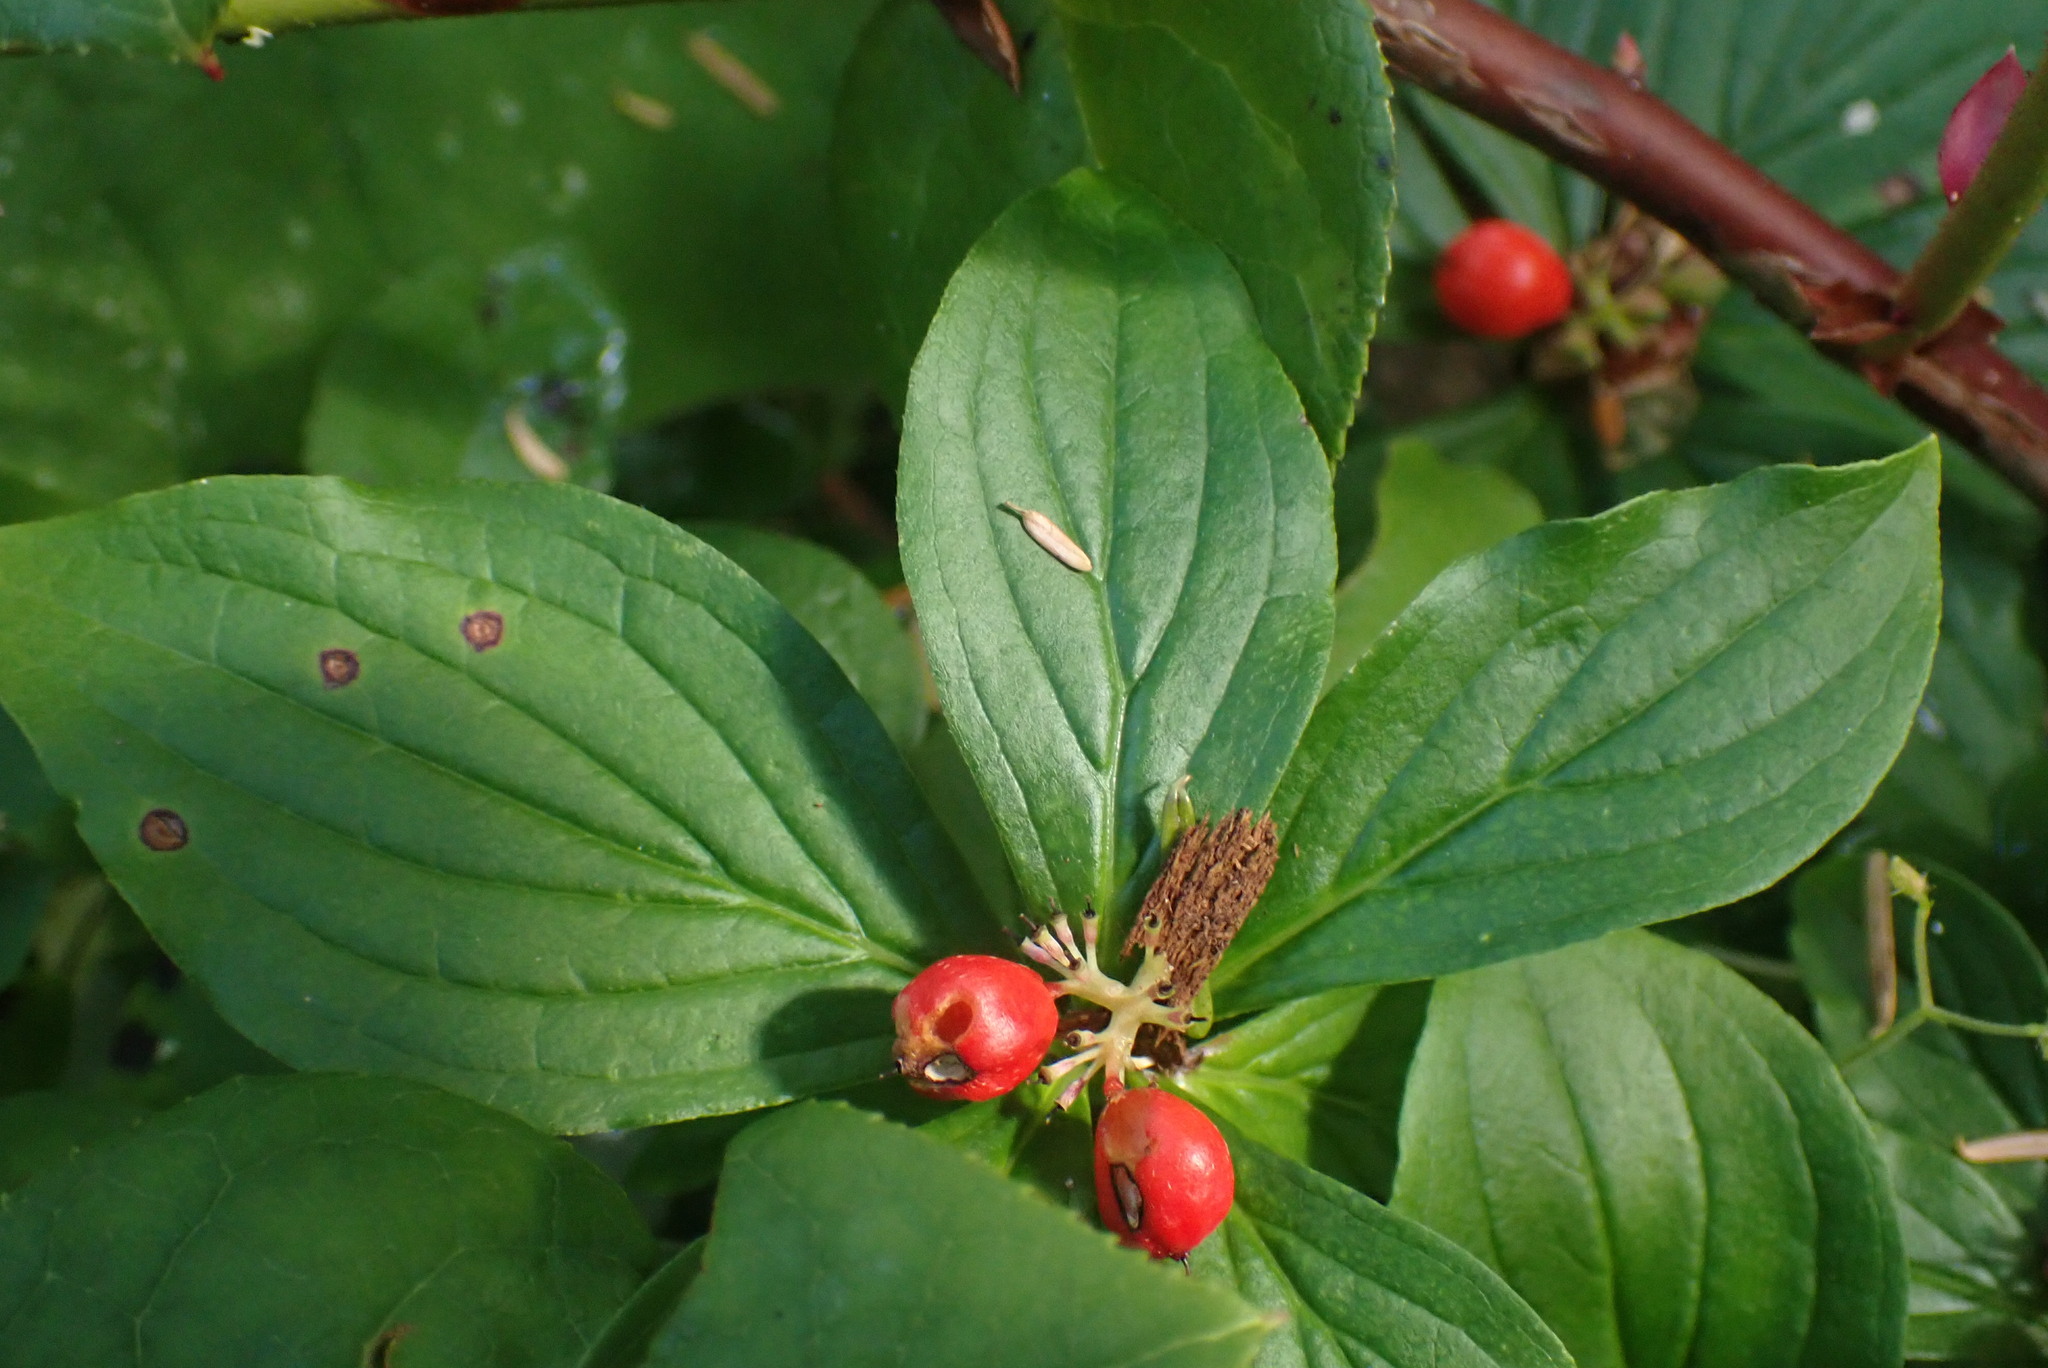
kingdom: Plantae
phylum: Tracheophyta
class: Magnoliopsida
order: Cornales
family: Cornaceae
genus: Cornus
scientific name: Cornus unalaschkensis
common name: Alaska bunchberry
